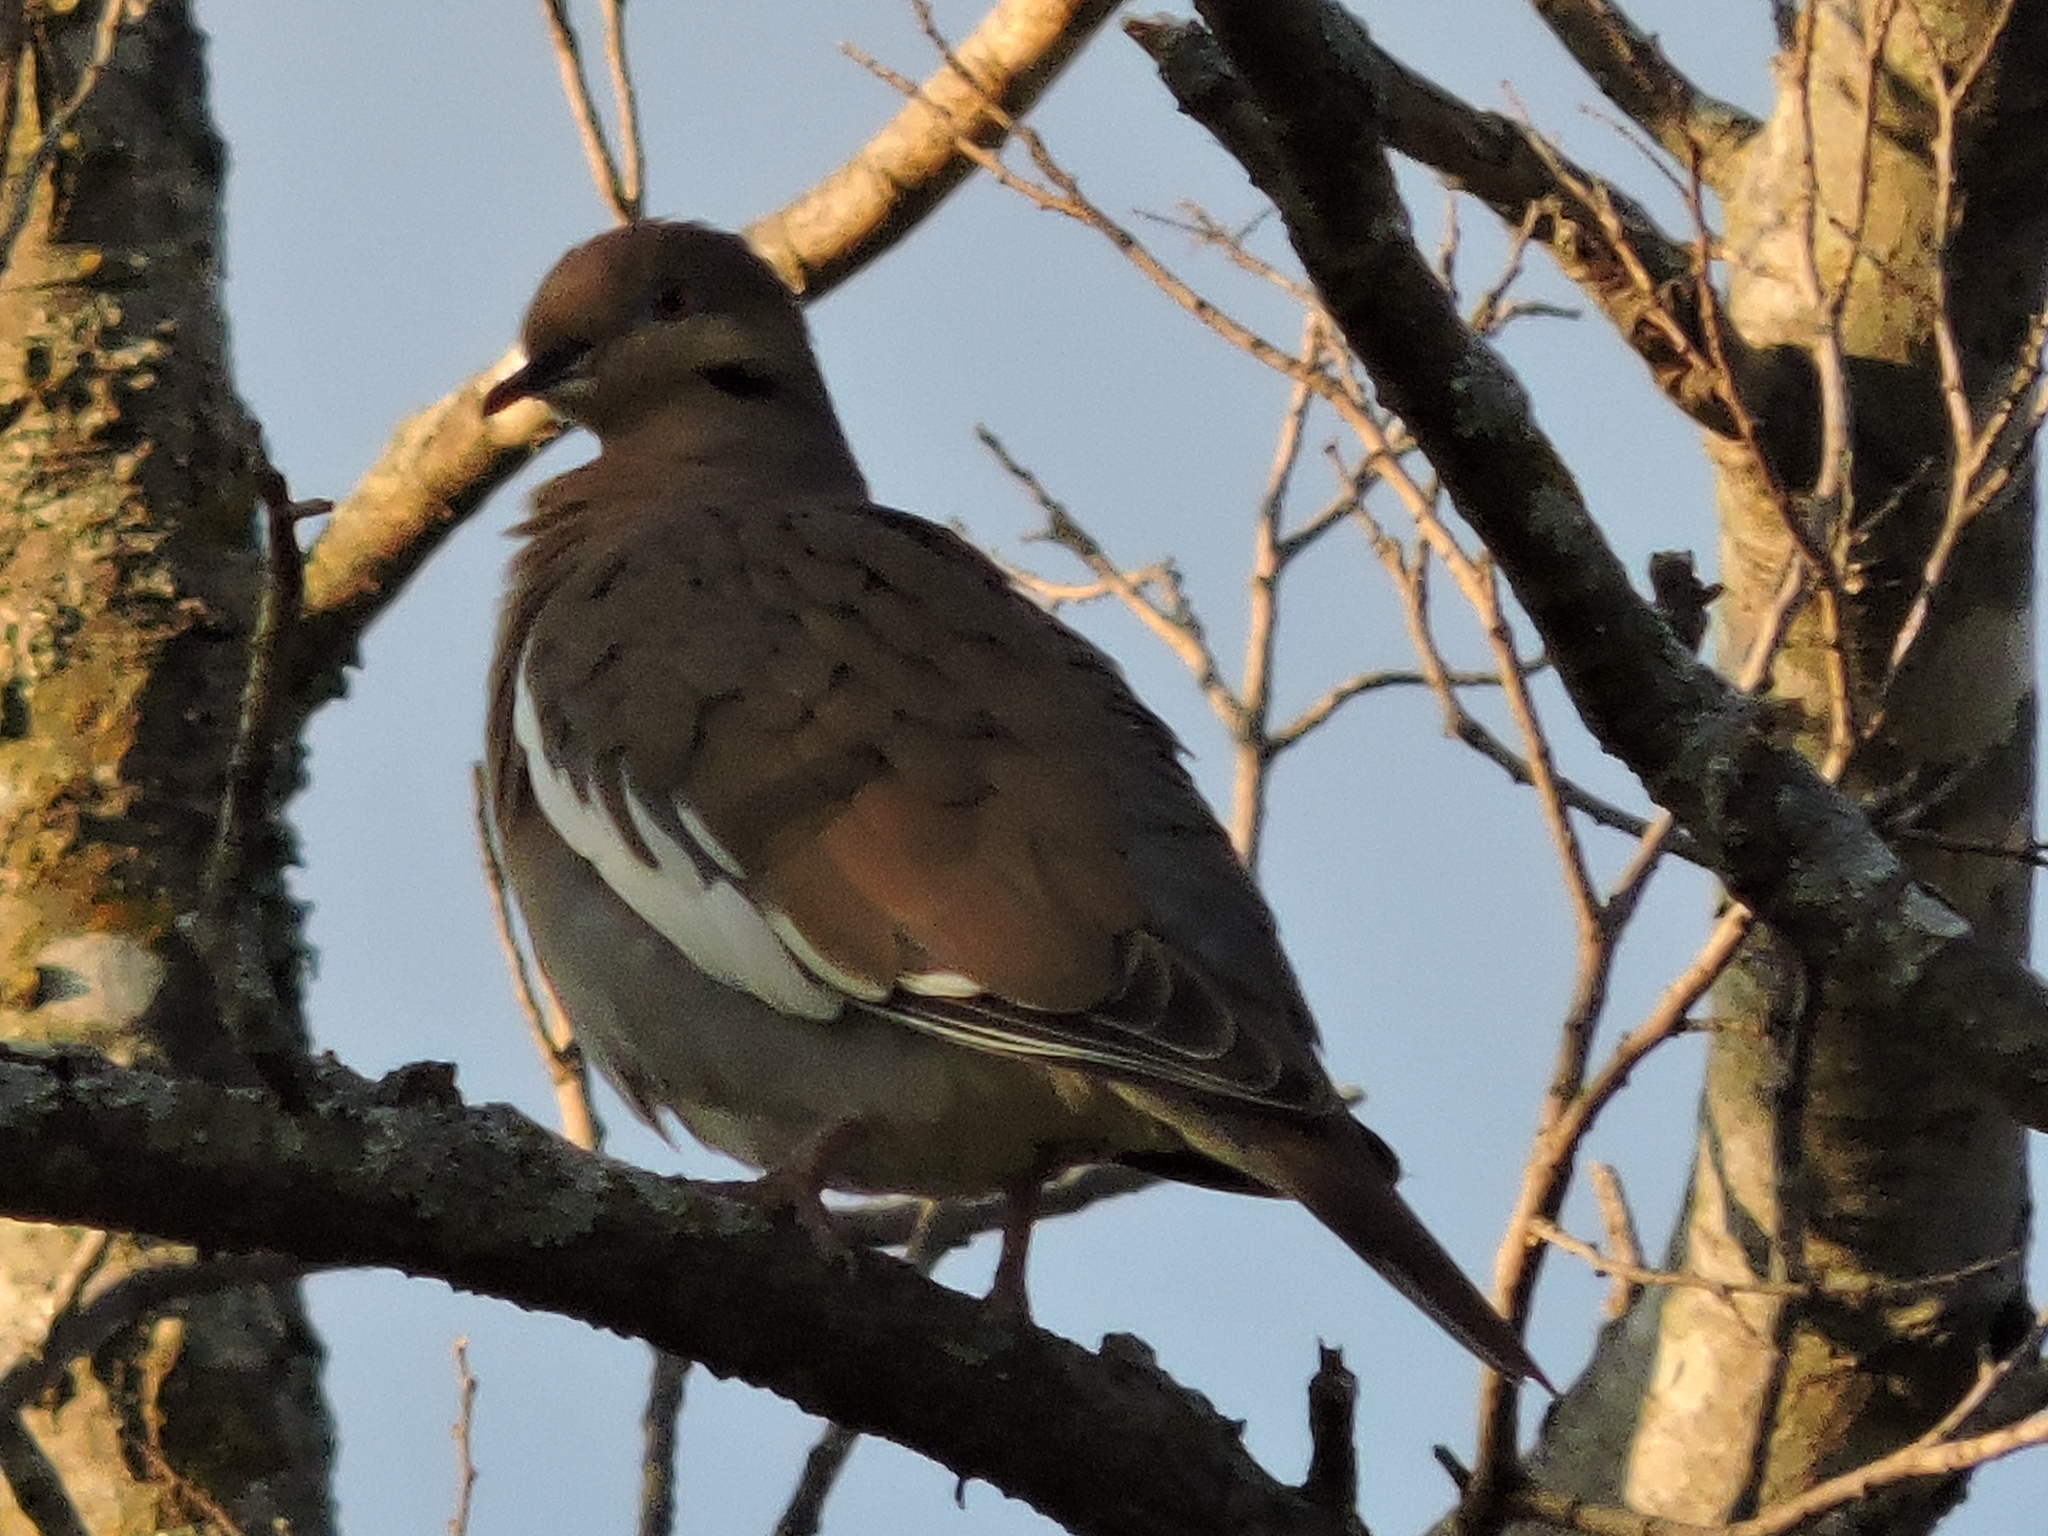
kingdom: Animalia
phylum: Chordata
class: Aves
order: Columbiformes
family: Columbidae
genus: Zenaida
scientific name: Zenaida asiatica
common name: White-winged dove
